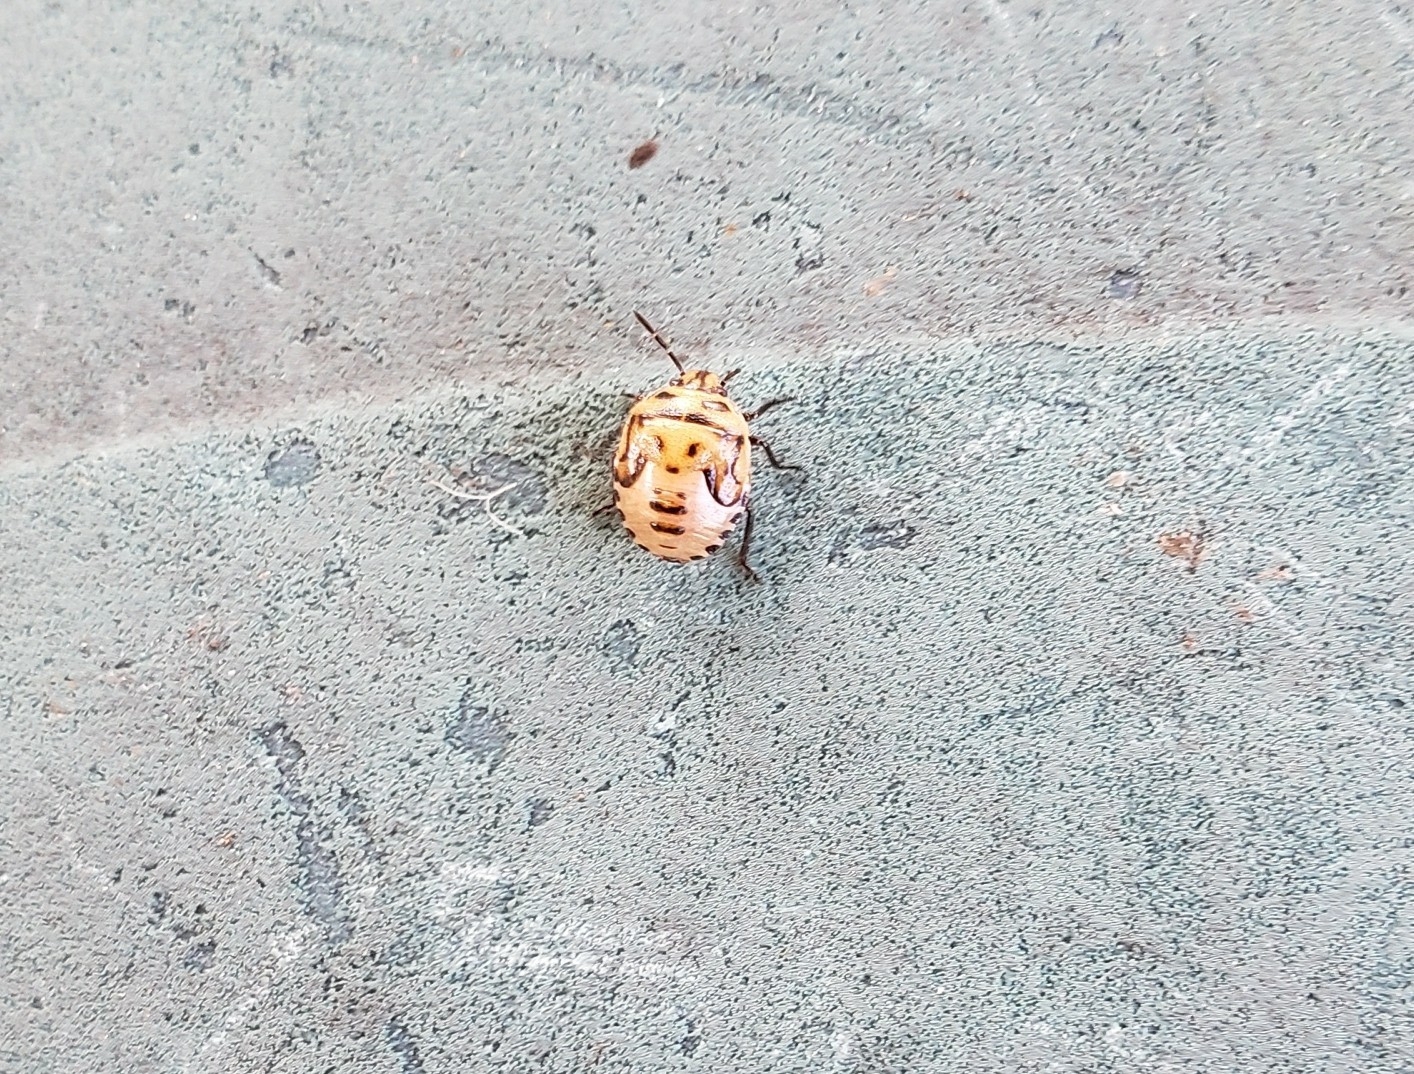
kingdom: Animalia
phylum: Arthropoda
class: Insecta
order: Hemiptera
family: Pentatomidae
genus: Cosmopepla
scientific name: Cosmopepla lintneriana
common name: Twice-stabbed stink bug
